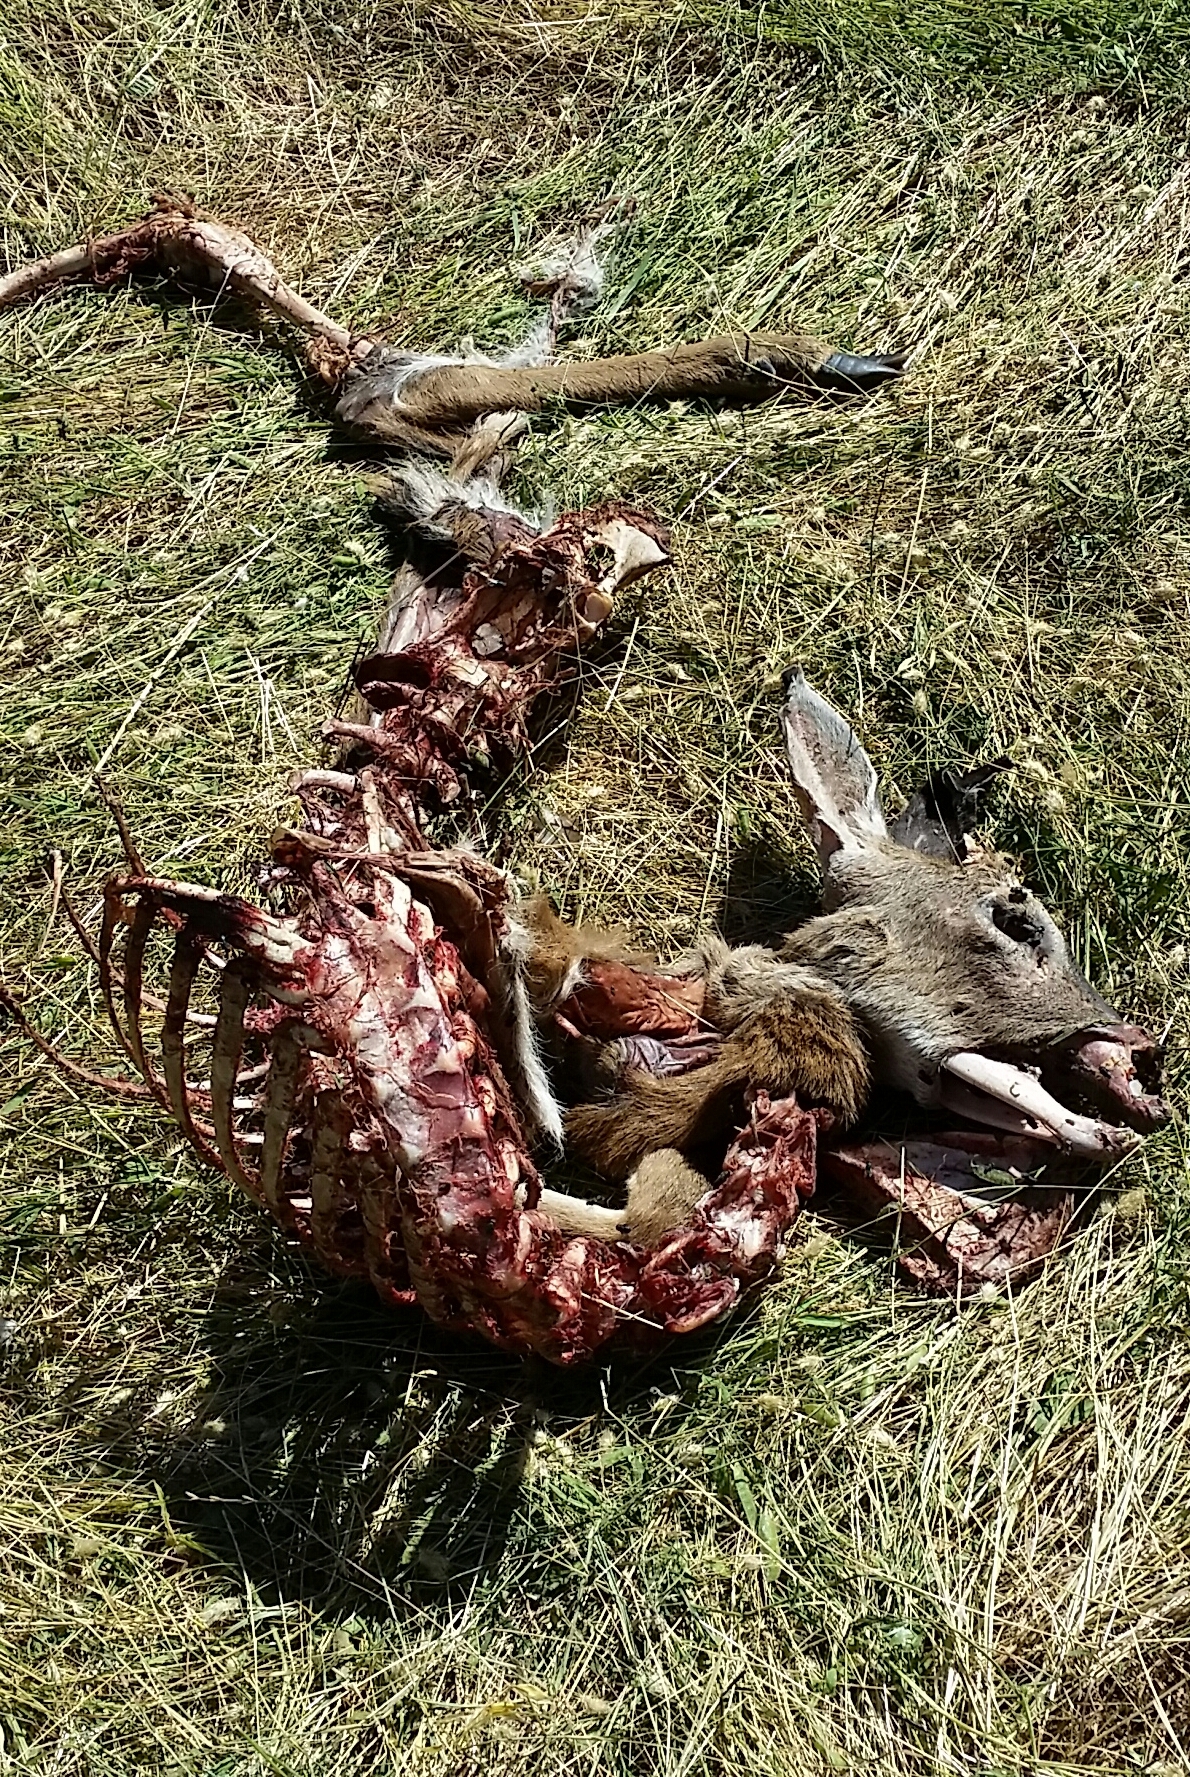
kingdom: Animalia
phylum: Chordata
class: Mammalia
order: Artiodactyla
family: Cervidae
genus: Odocoileus
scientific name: Odocoileus hemionus
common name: Mule deer
